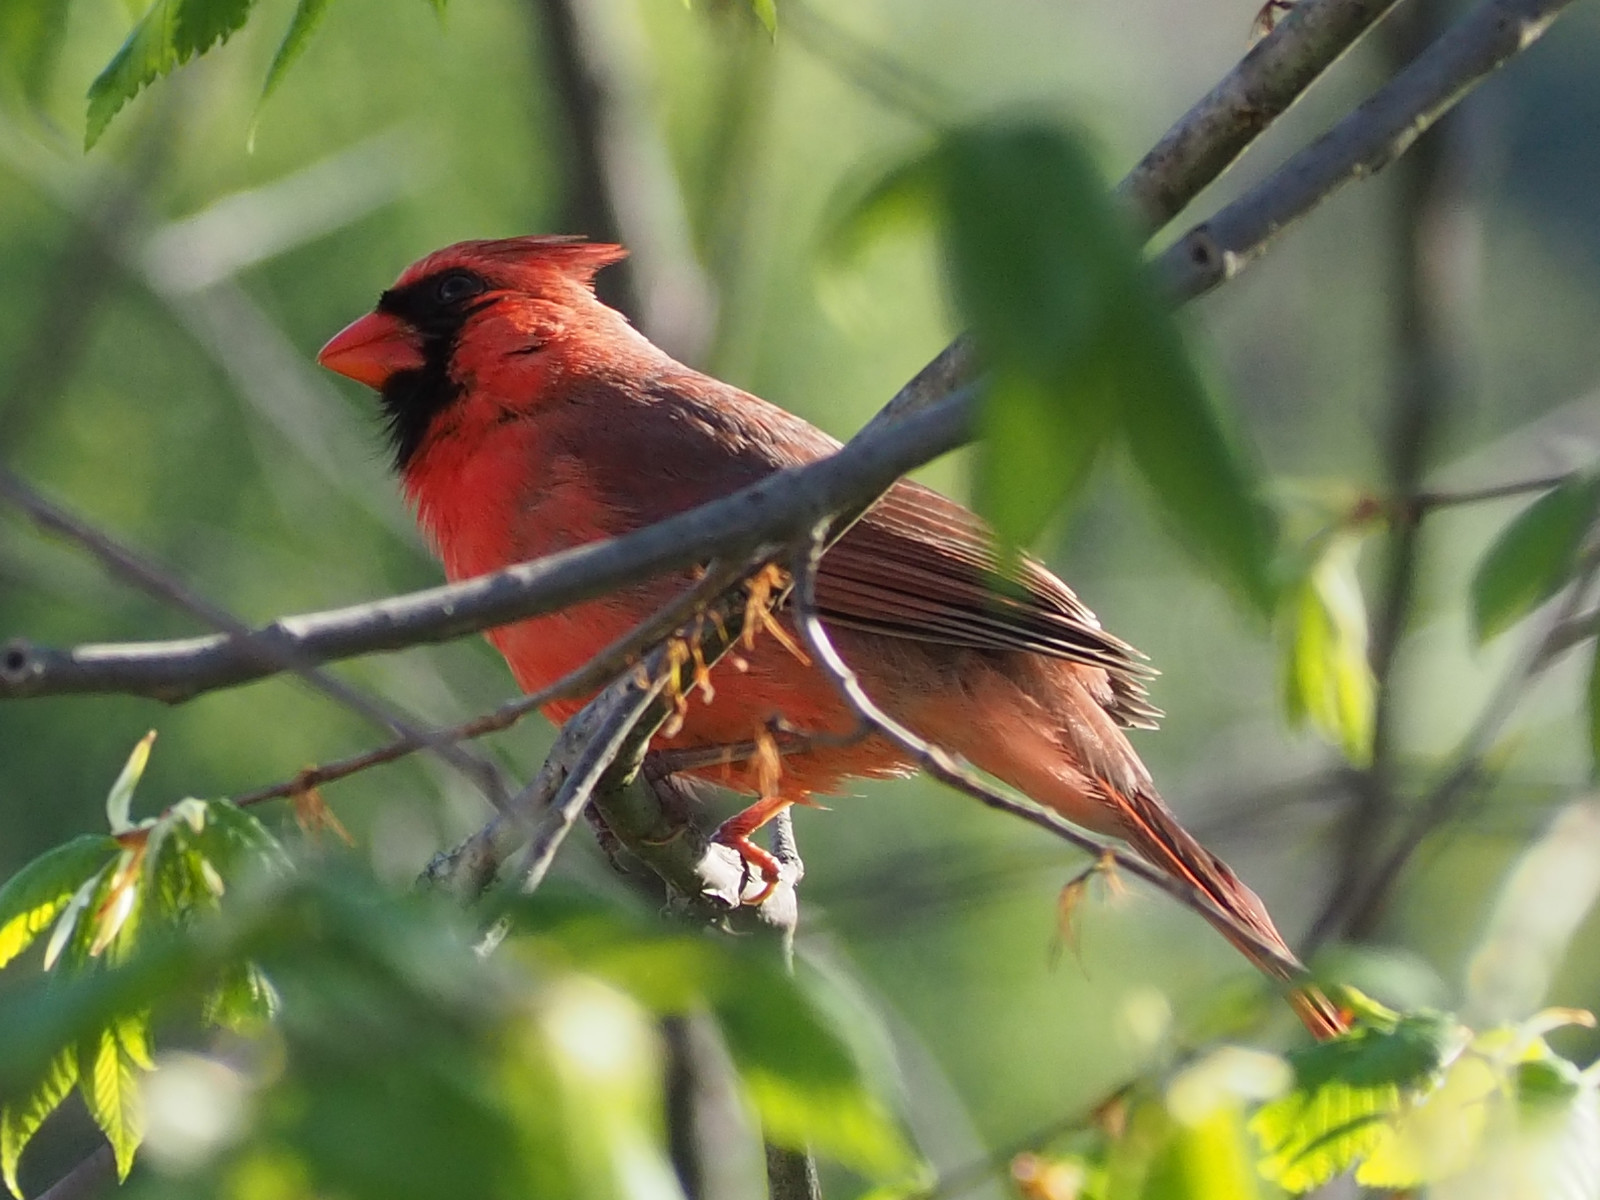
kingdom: Animalia
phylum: Chordata
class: Aves
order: Passeriformes
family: Cardinalidae
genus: Cardinalis
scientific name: Cardinalis cardinalis
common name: Northern cardinal
